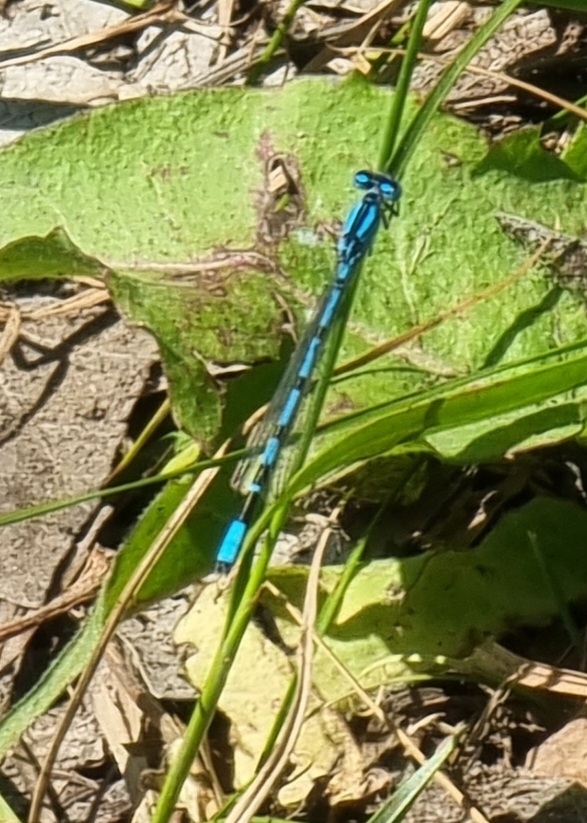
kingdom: Animalia
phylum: Arthropoda
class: Insecta
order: Odonata
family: Coenagrionidae
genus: Enallagma
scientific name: Enallagma cyathigerum
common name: Common blue damselfly
